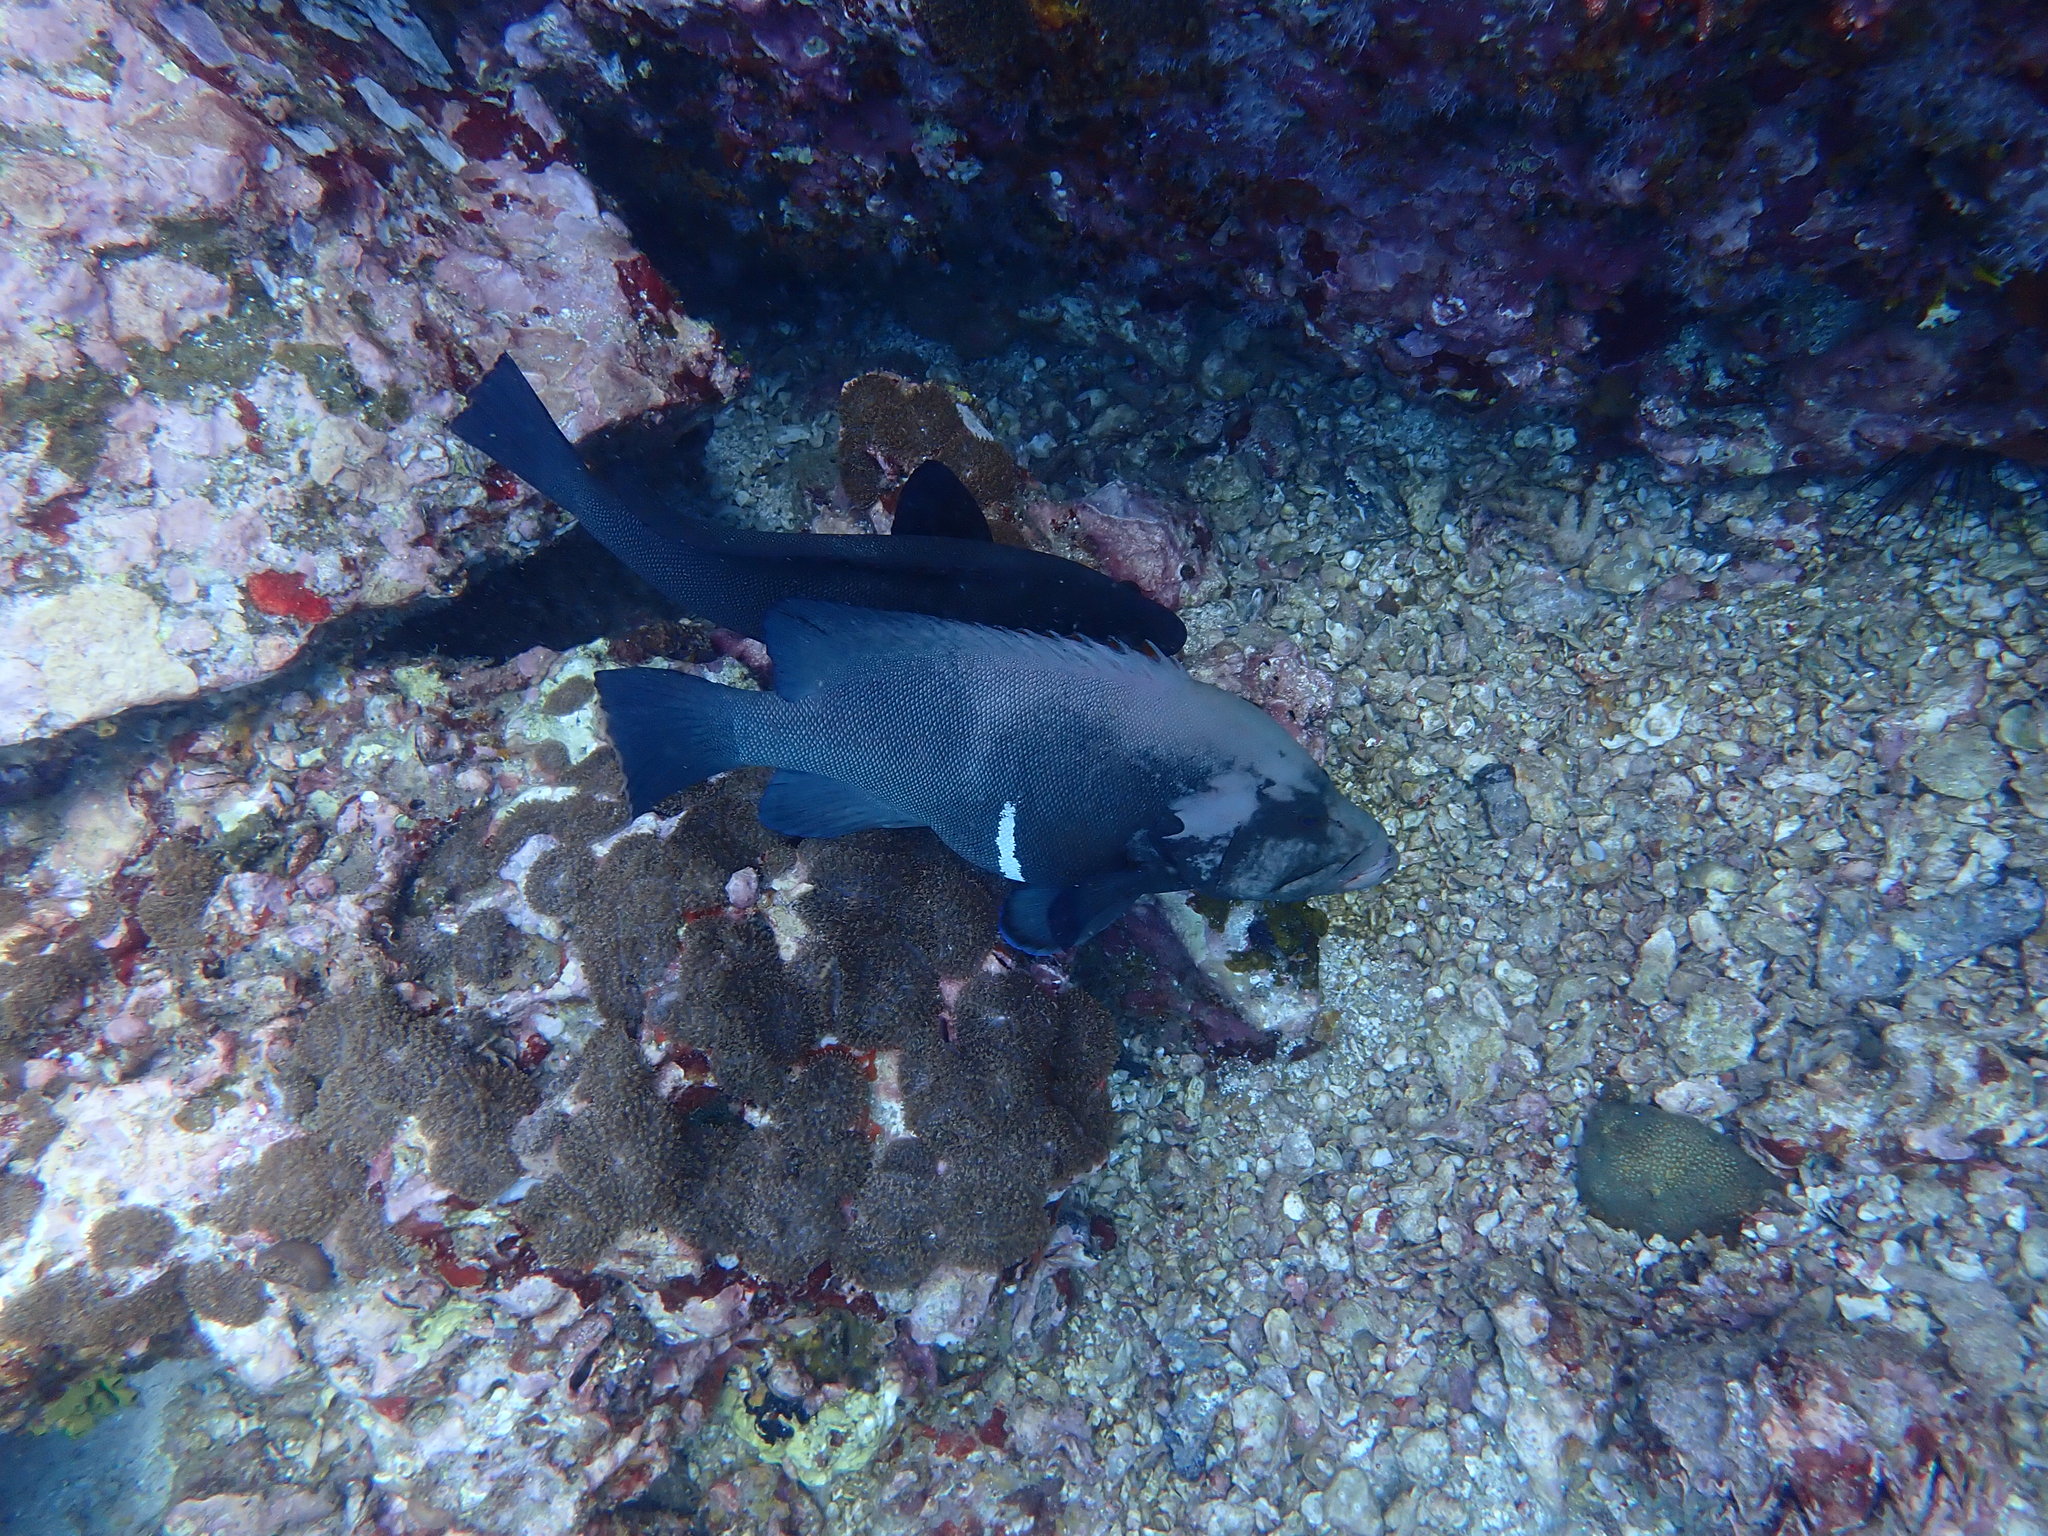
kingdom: Animalia
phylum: Chordata
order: Perciformes
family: Serranidae
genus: Aethaloperca
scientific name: Aethaloperca rogaa
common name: Redmouth grouper
